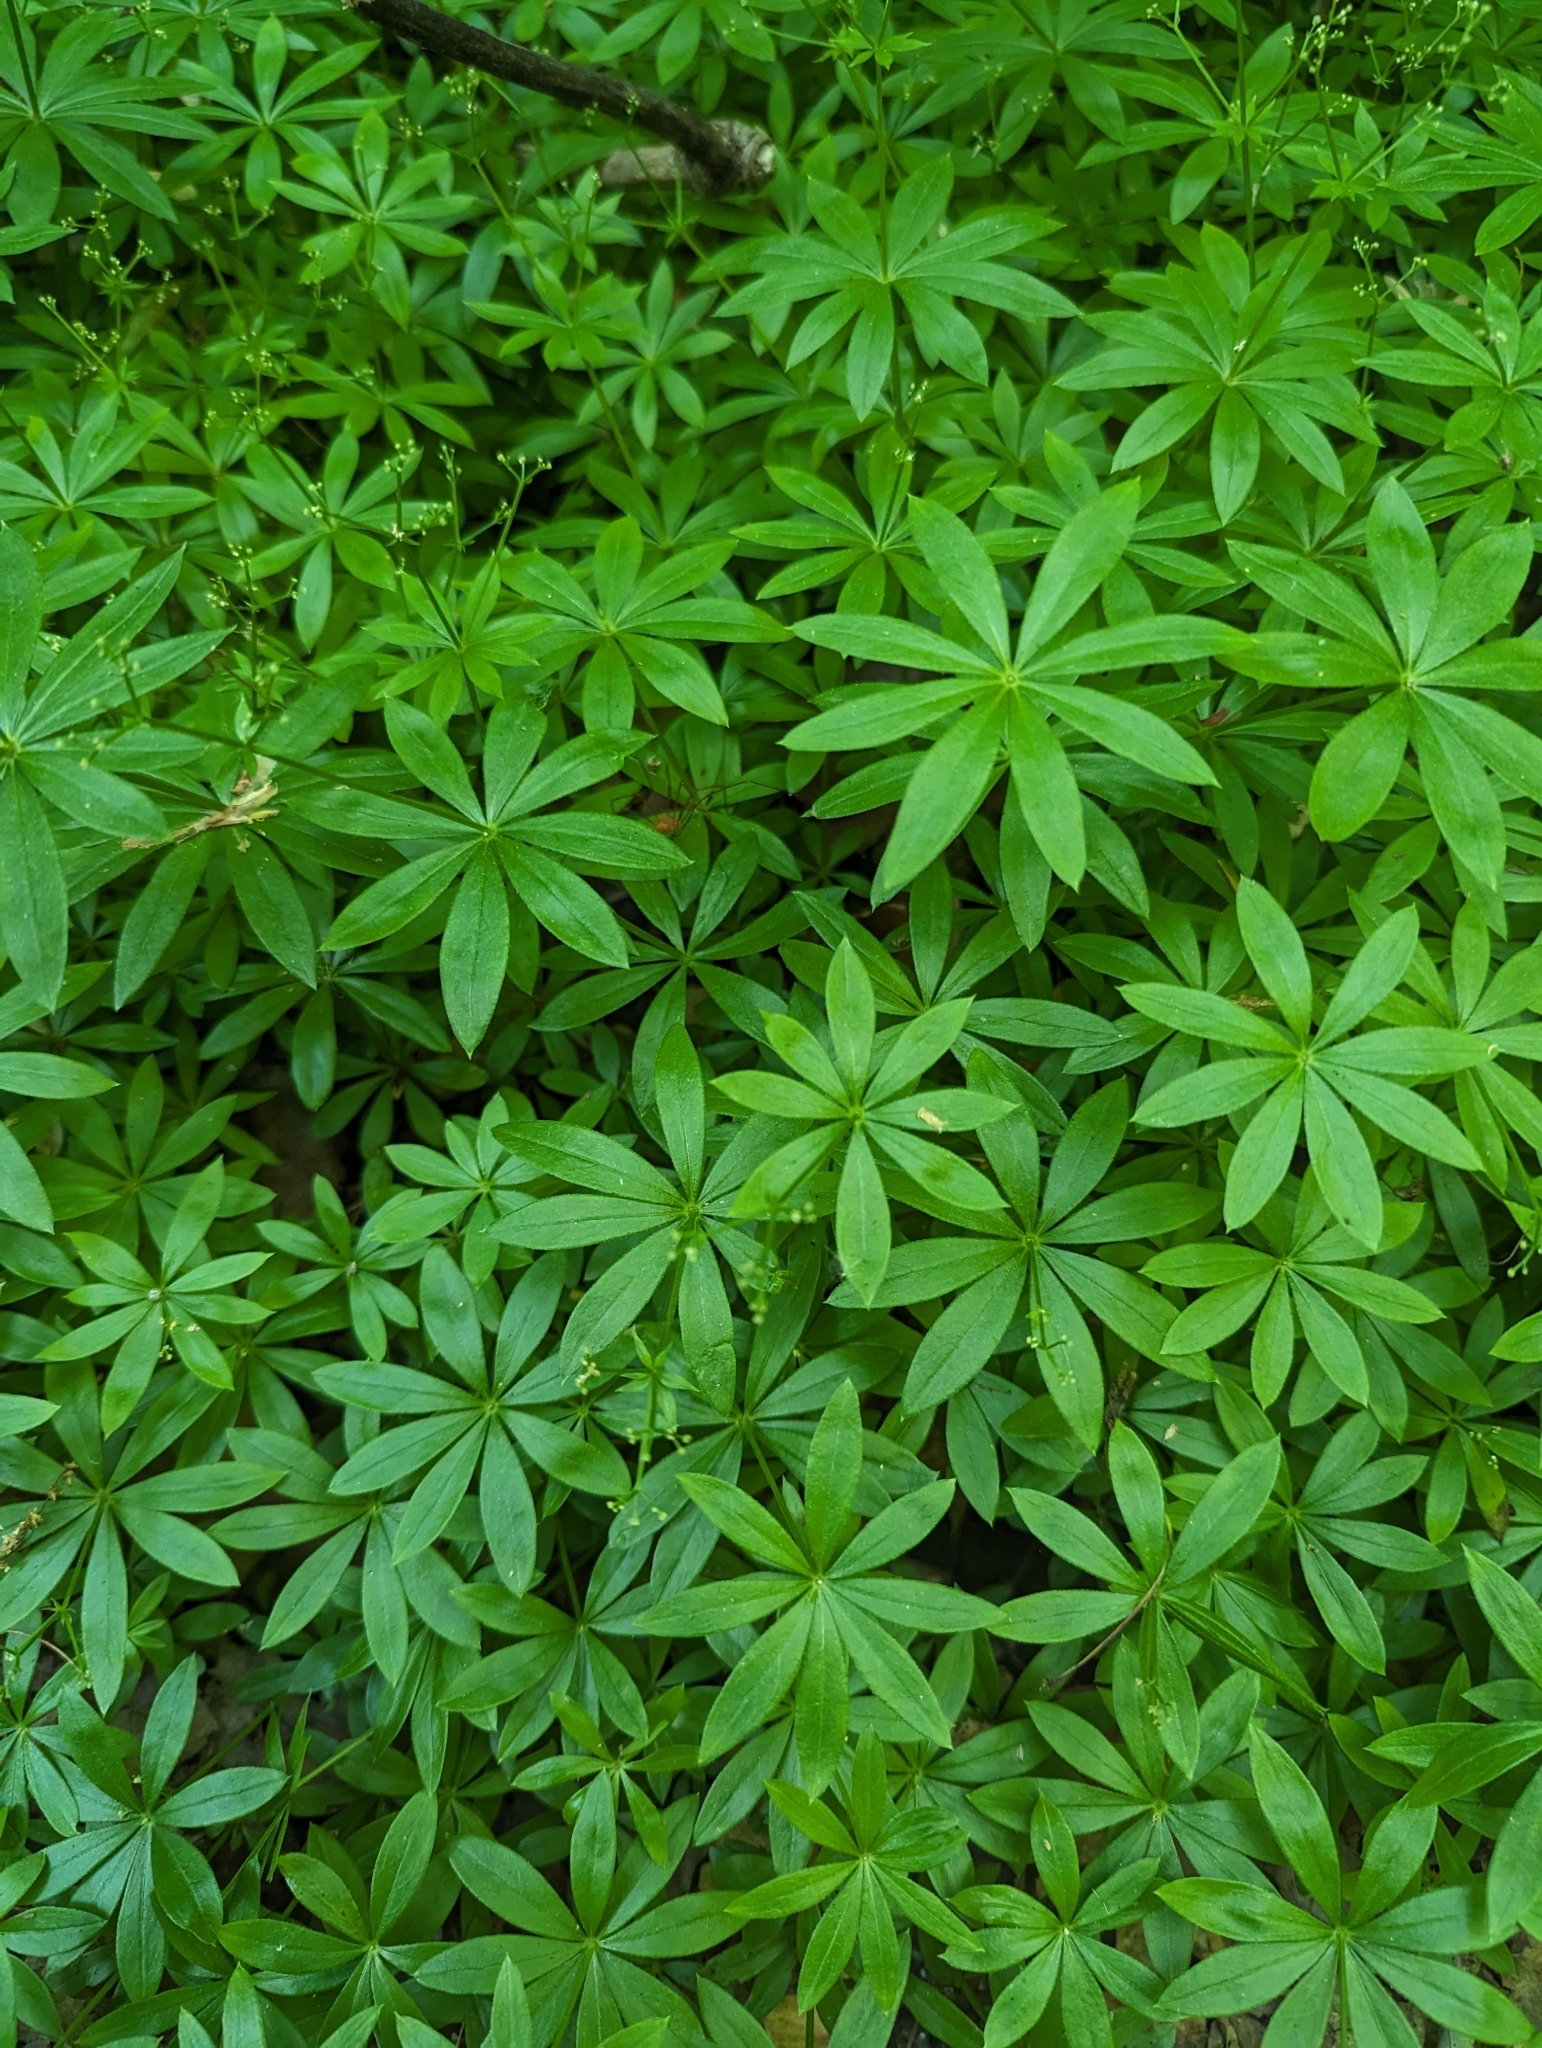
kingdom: Plantae
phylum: Tracheophyta
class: Magnoliopsida
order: Gentianales
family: Rubiaceae
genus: Galium
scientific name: Galium odoratum
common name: Sweet woodruff
